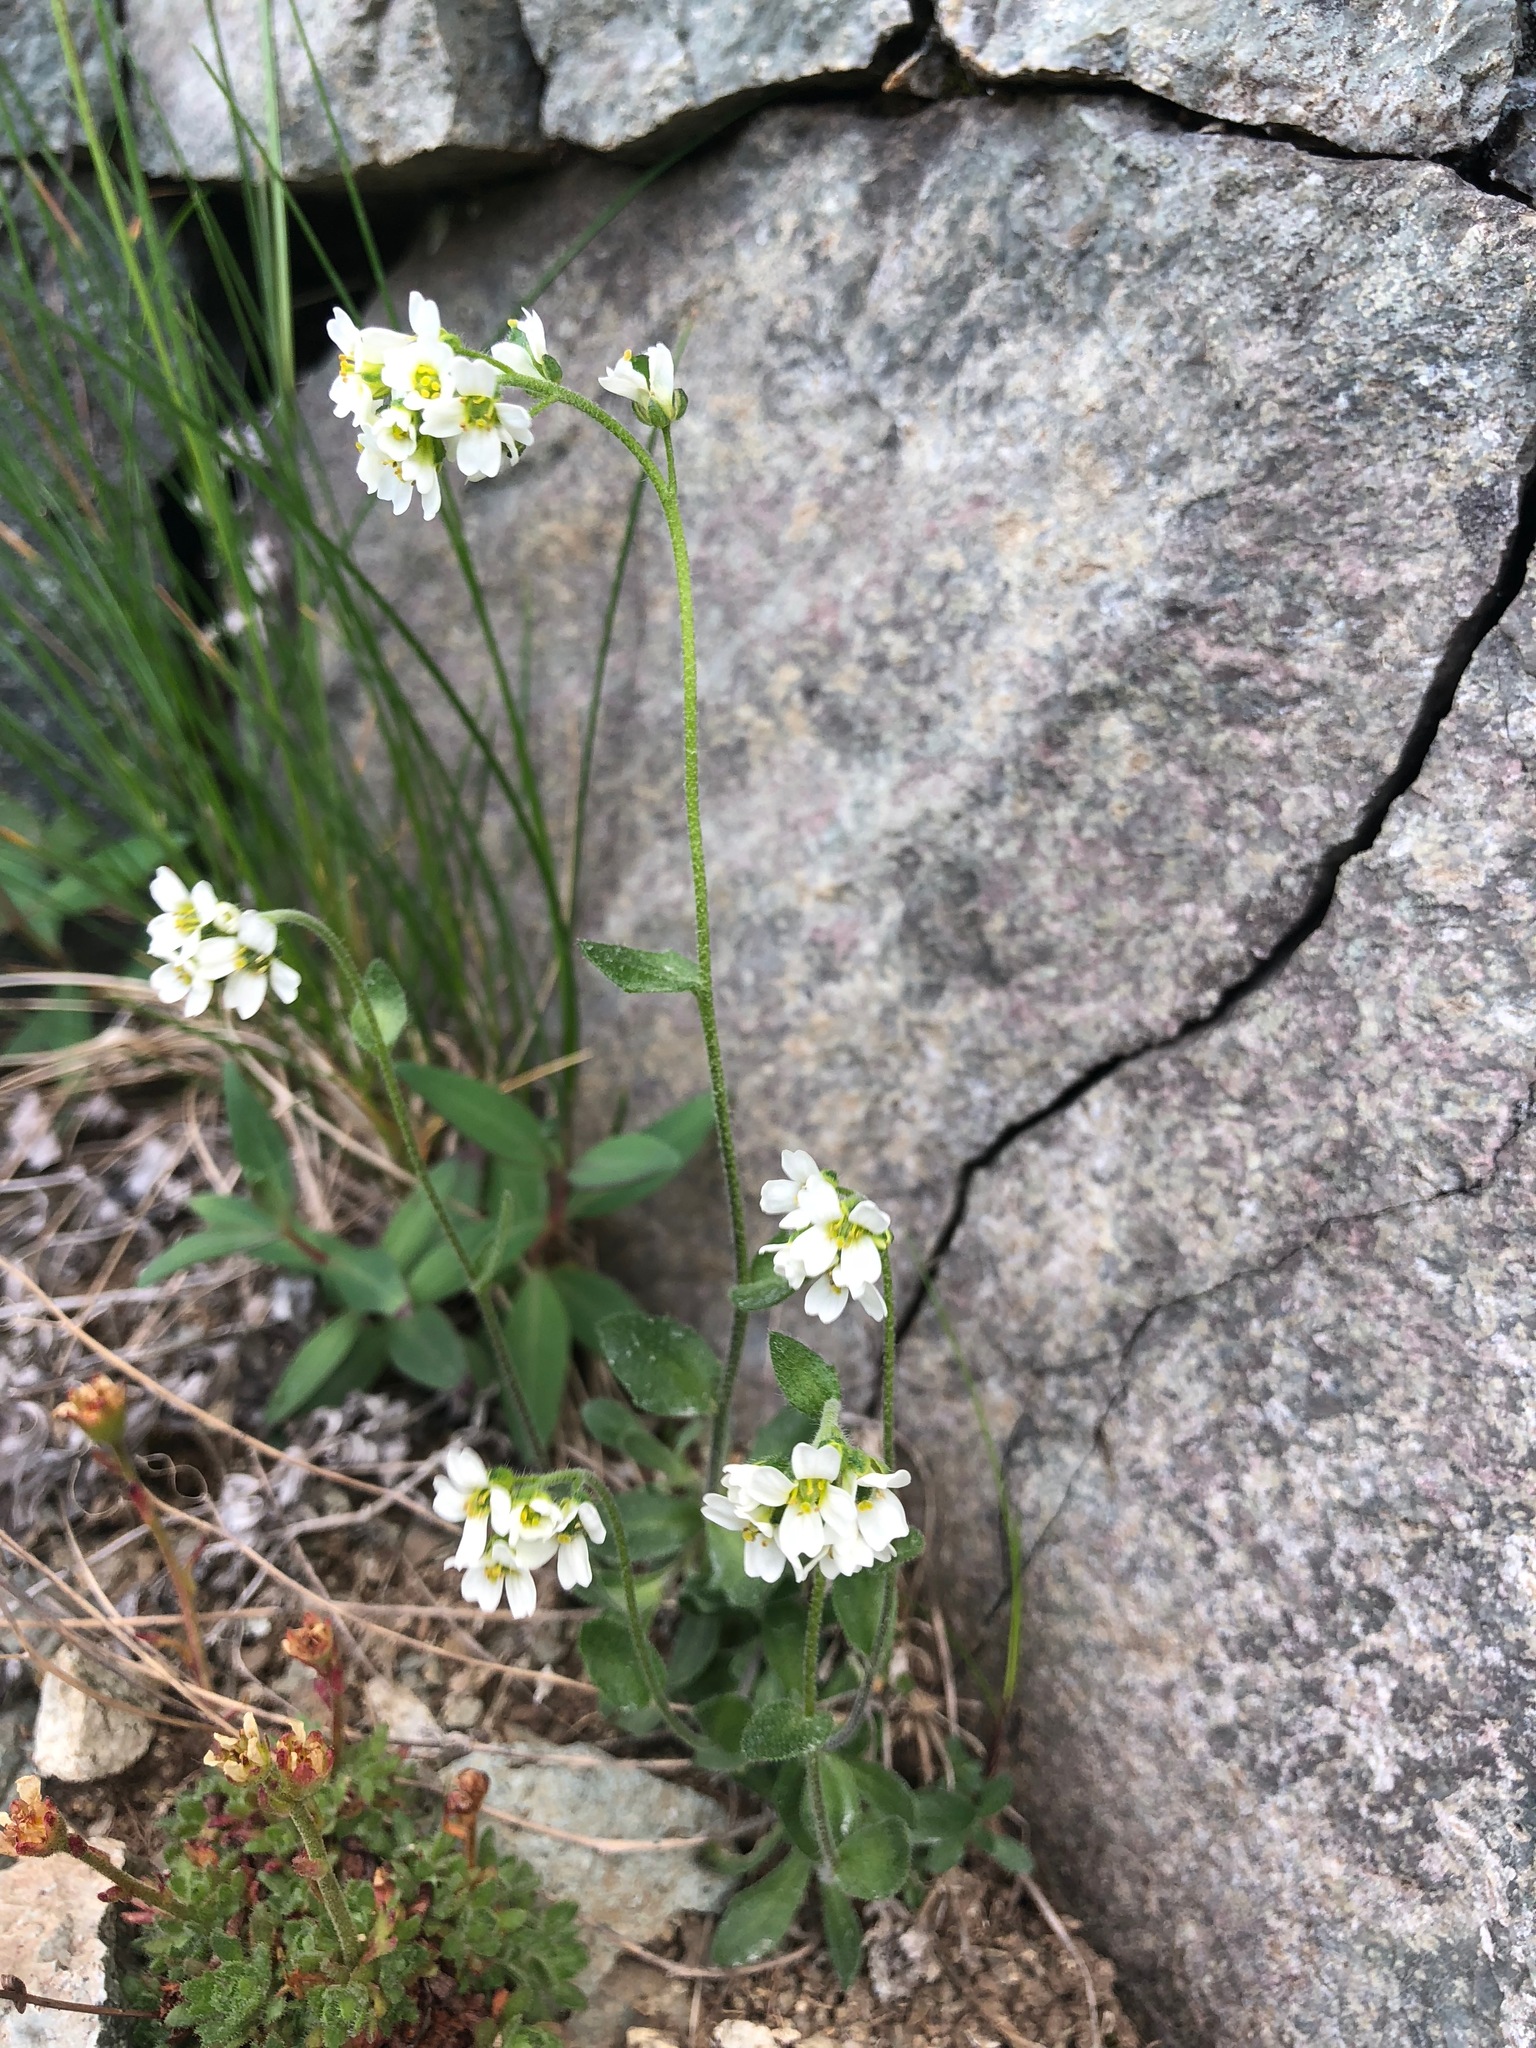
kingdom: Plantae
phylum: Tracheophyta
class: Magnoliopsida
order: Brassicales
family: Brassicaceae
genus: Draba
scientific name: Draba borealis
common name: Boreal draba
